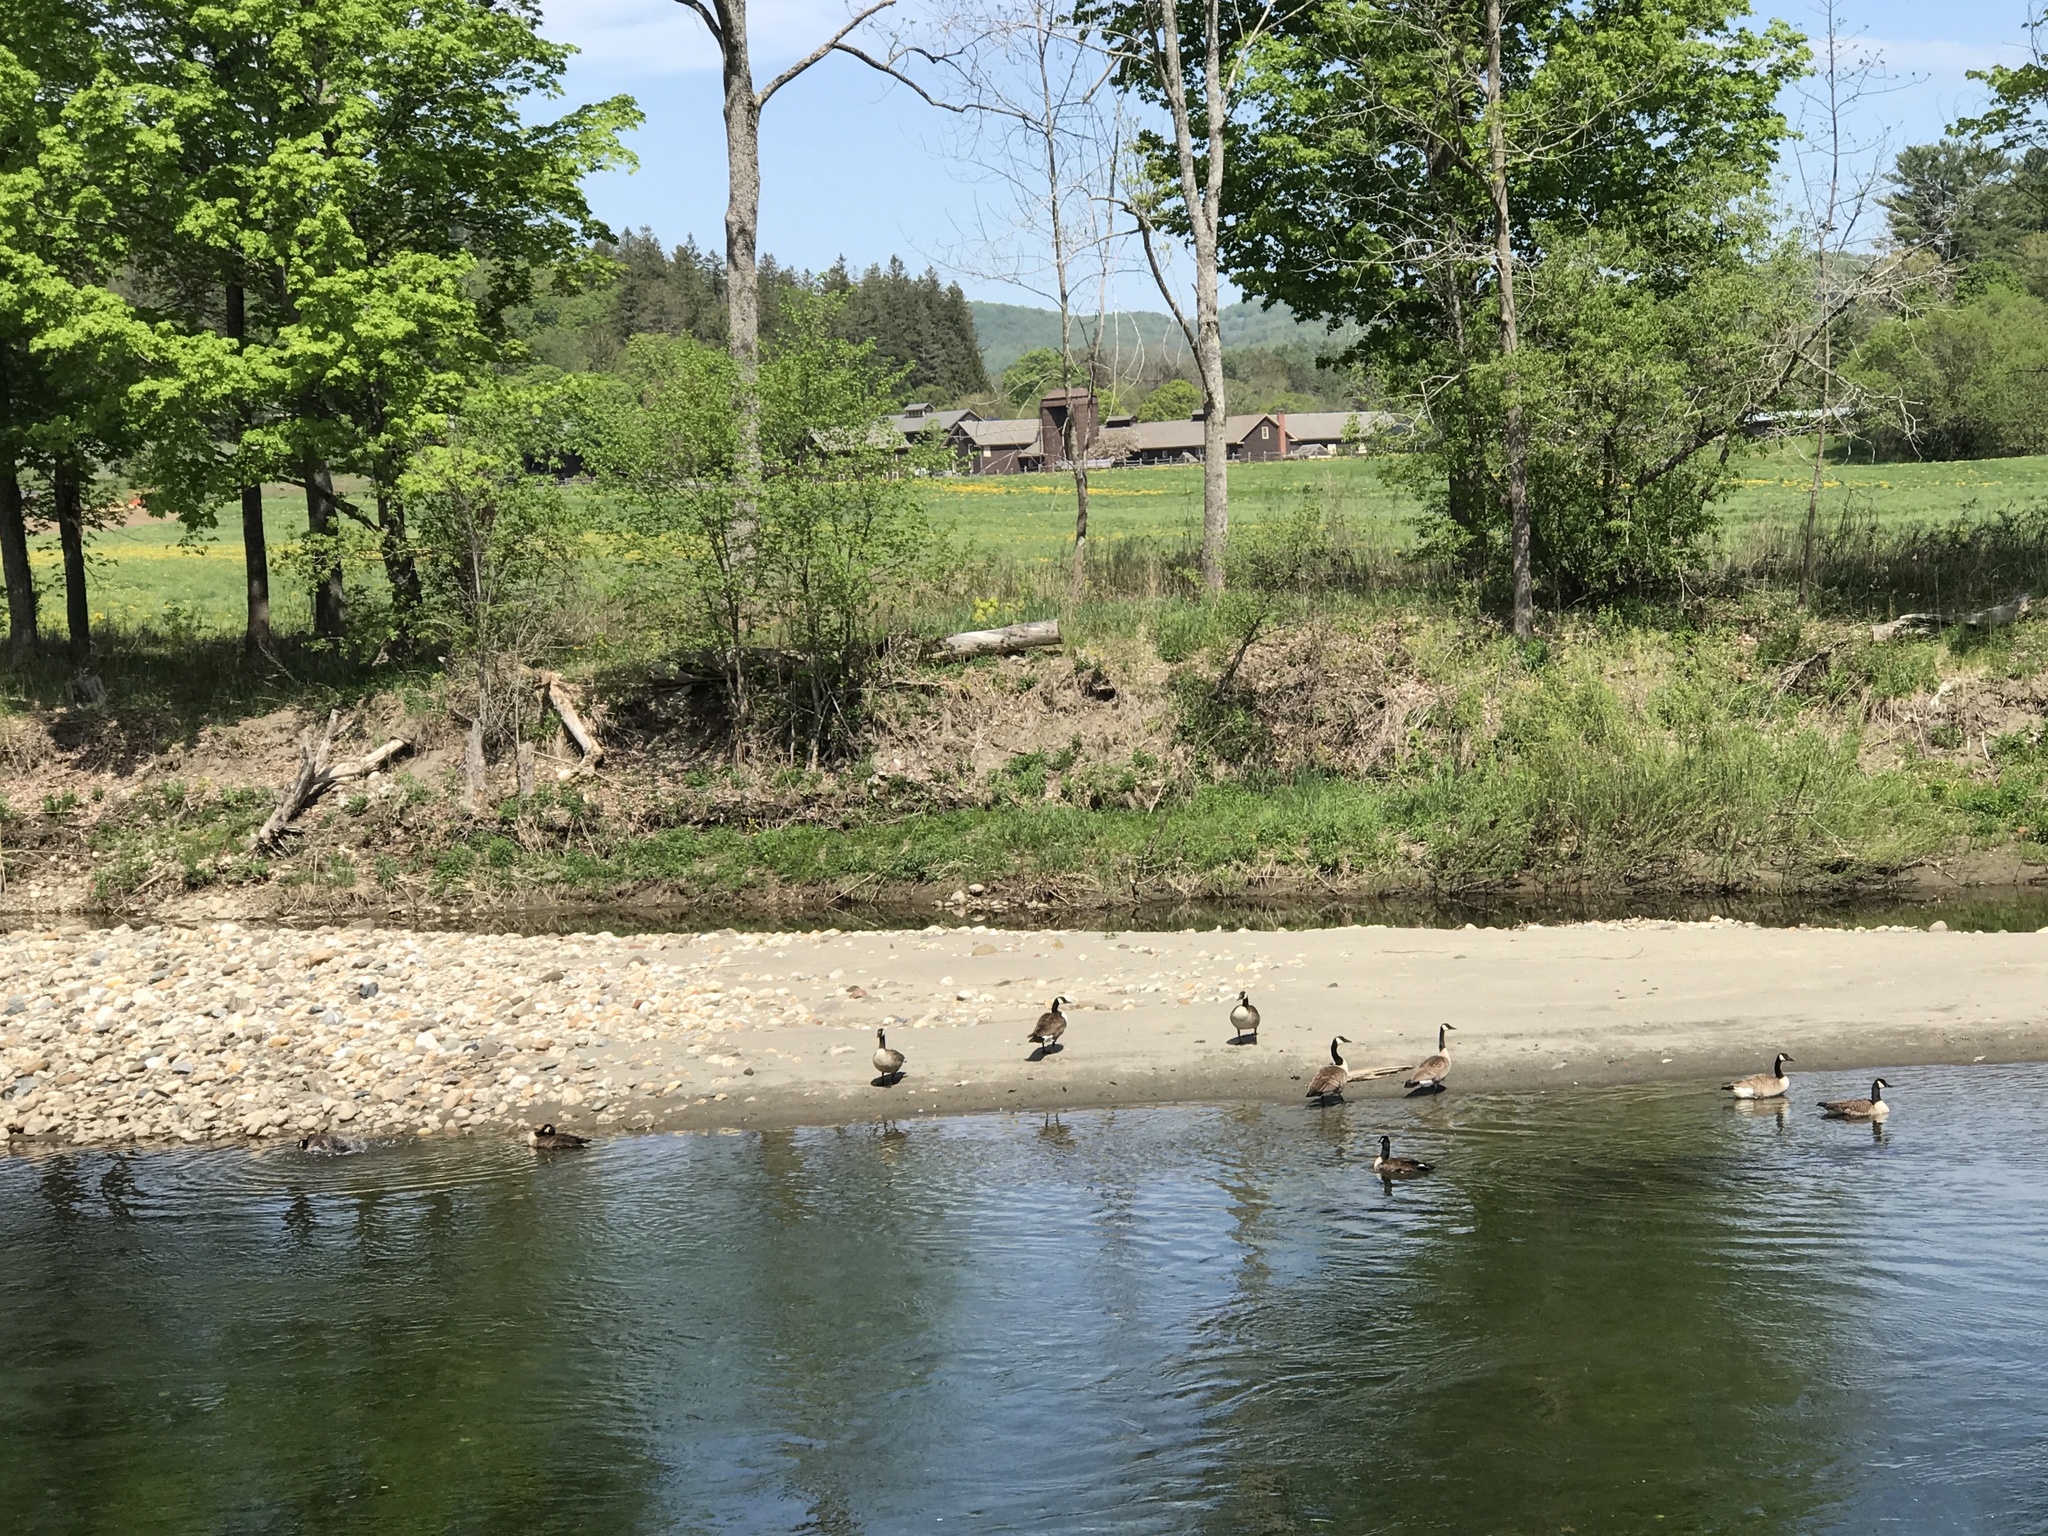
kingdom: Animalia
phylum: Chordata
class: Aves
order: Anseriformes
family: Anatidae
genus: Branta
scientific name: Branta canadensis
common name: Canada goose
